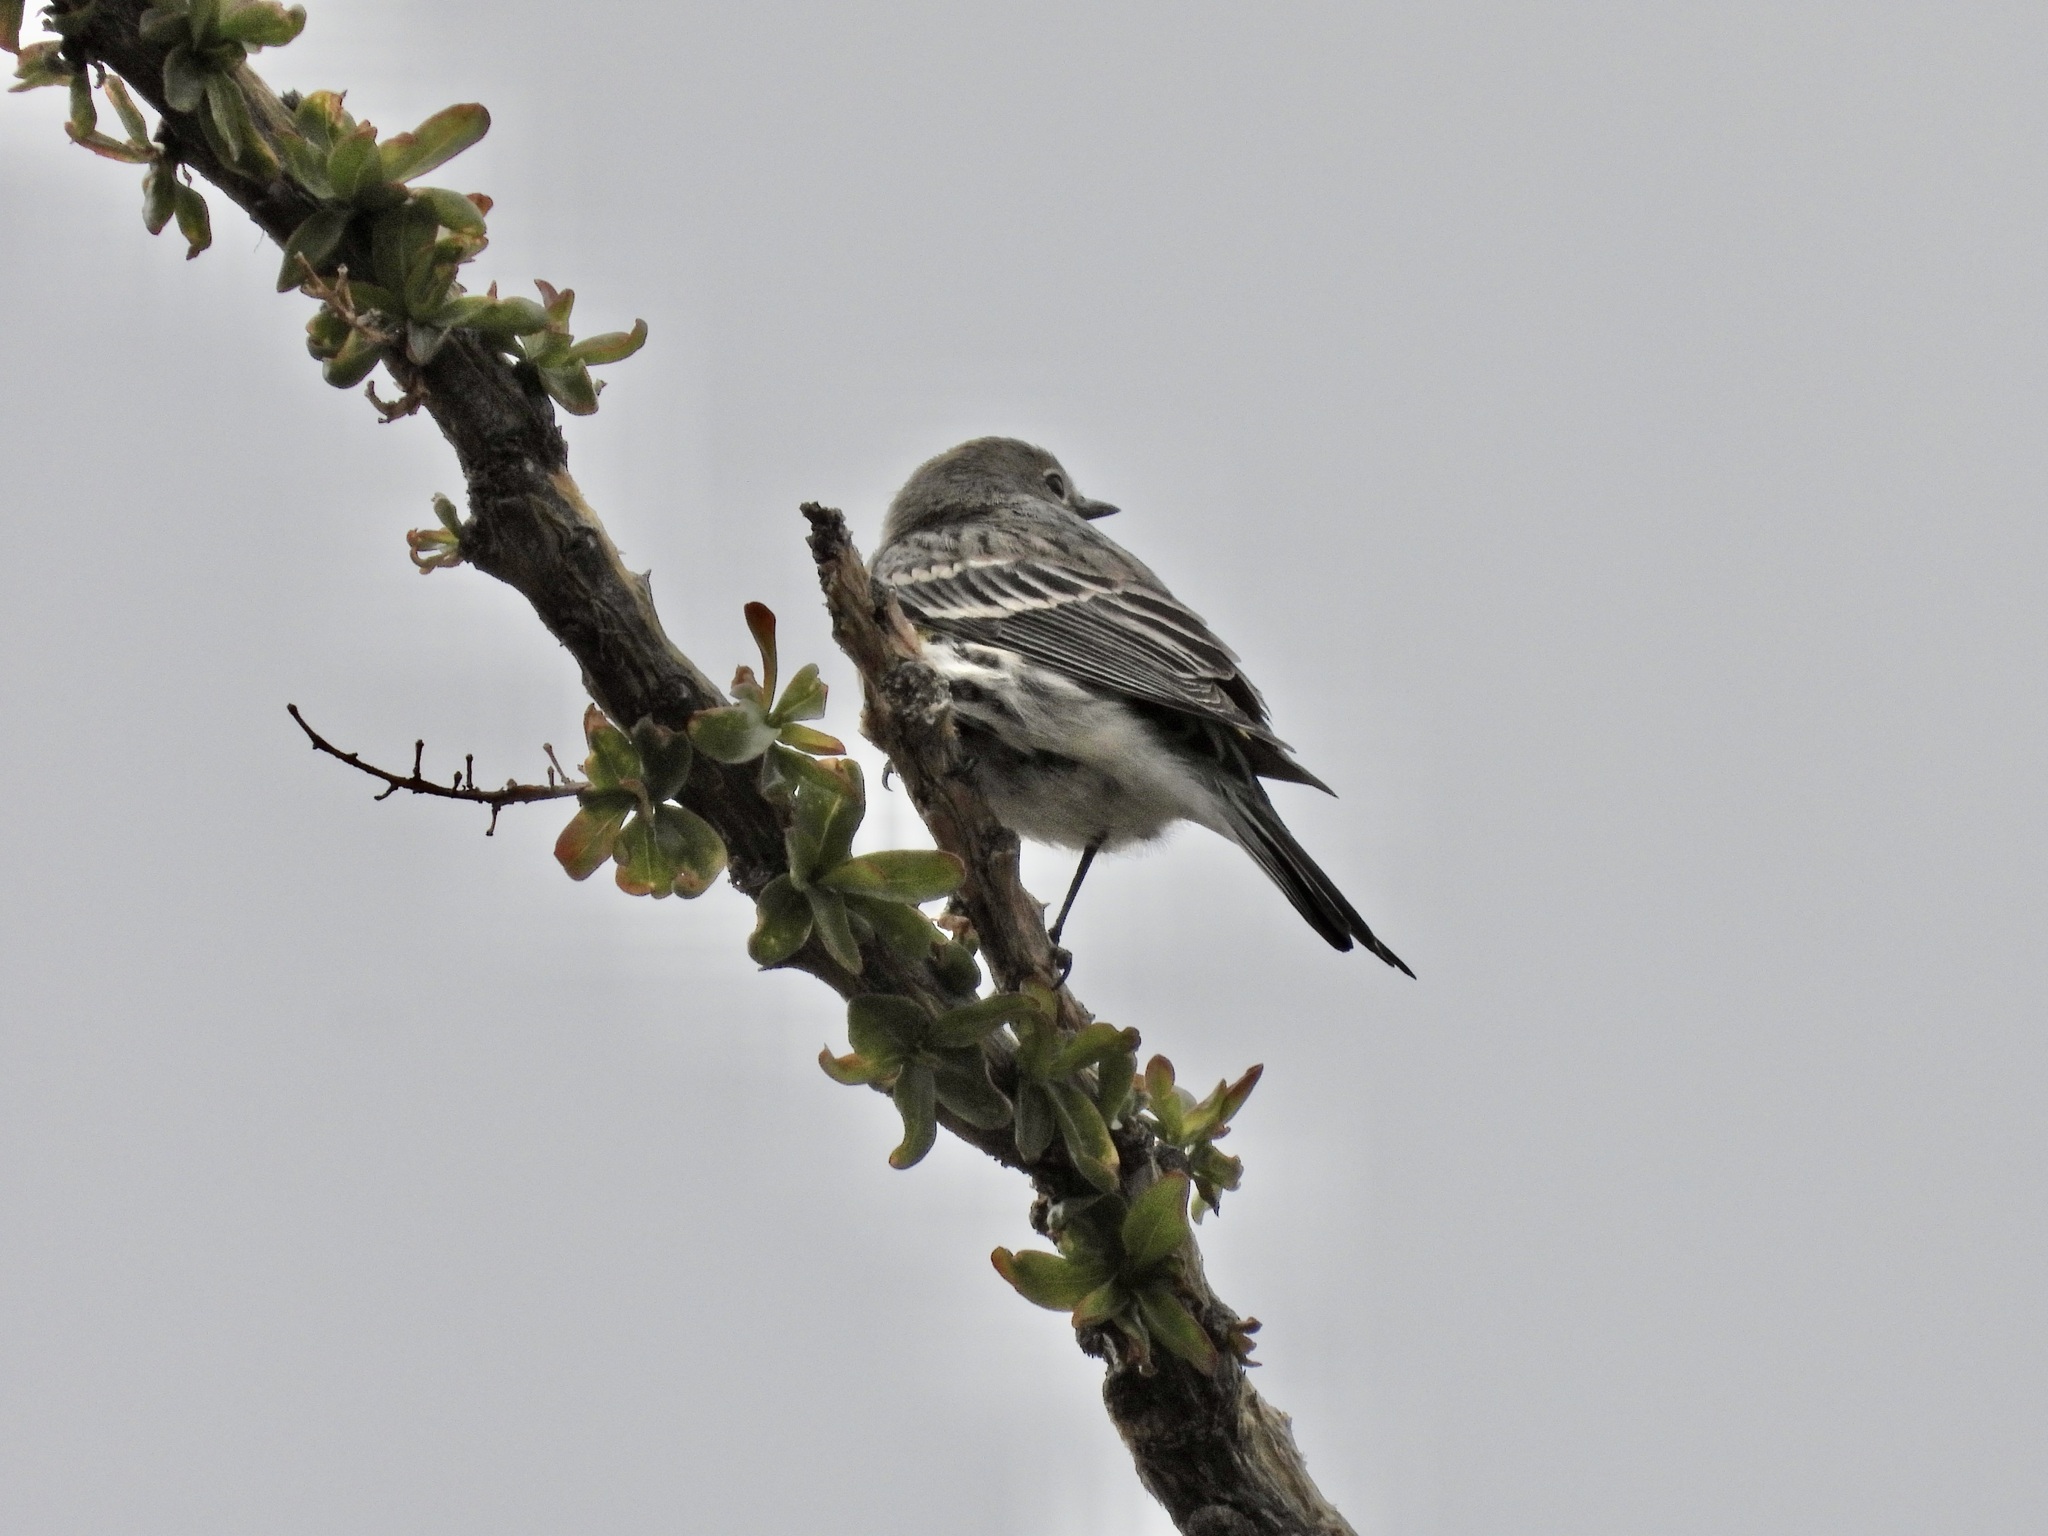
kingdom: Animalia
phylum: Chordata
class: Aves
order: Passeriformes
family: Parulidae
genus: Setophaga
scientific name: Setophaga coronata
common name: Myrtle warbler
